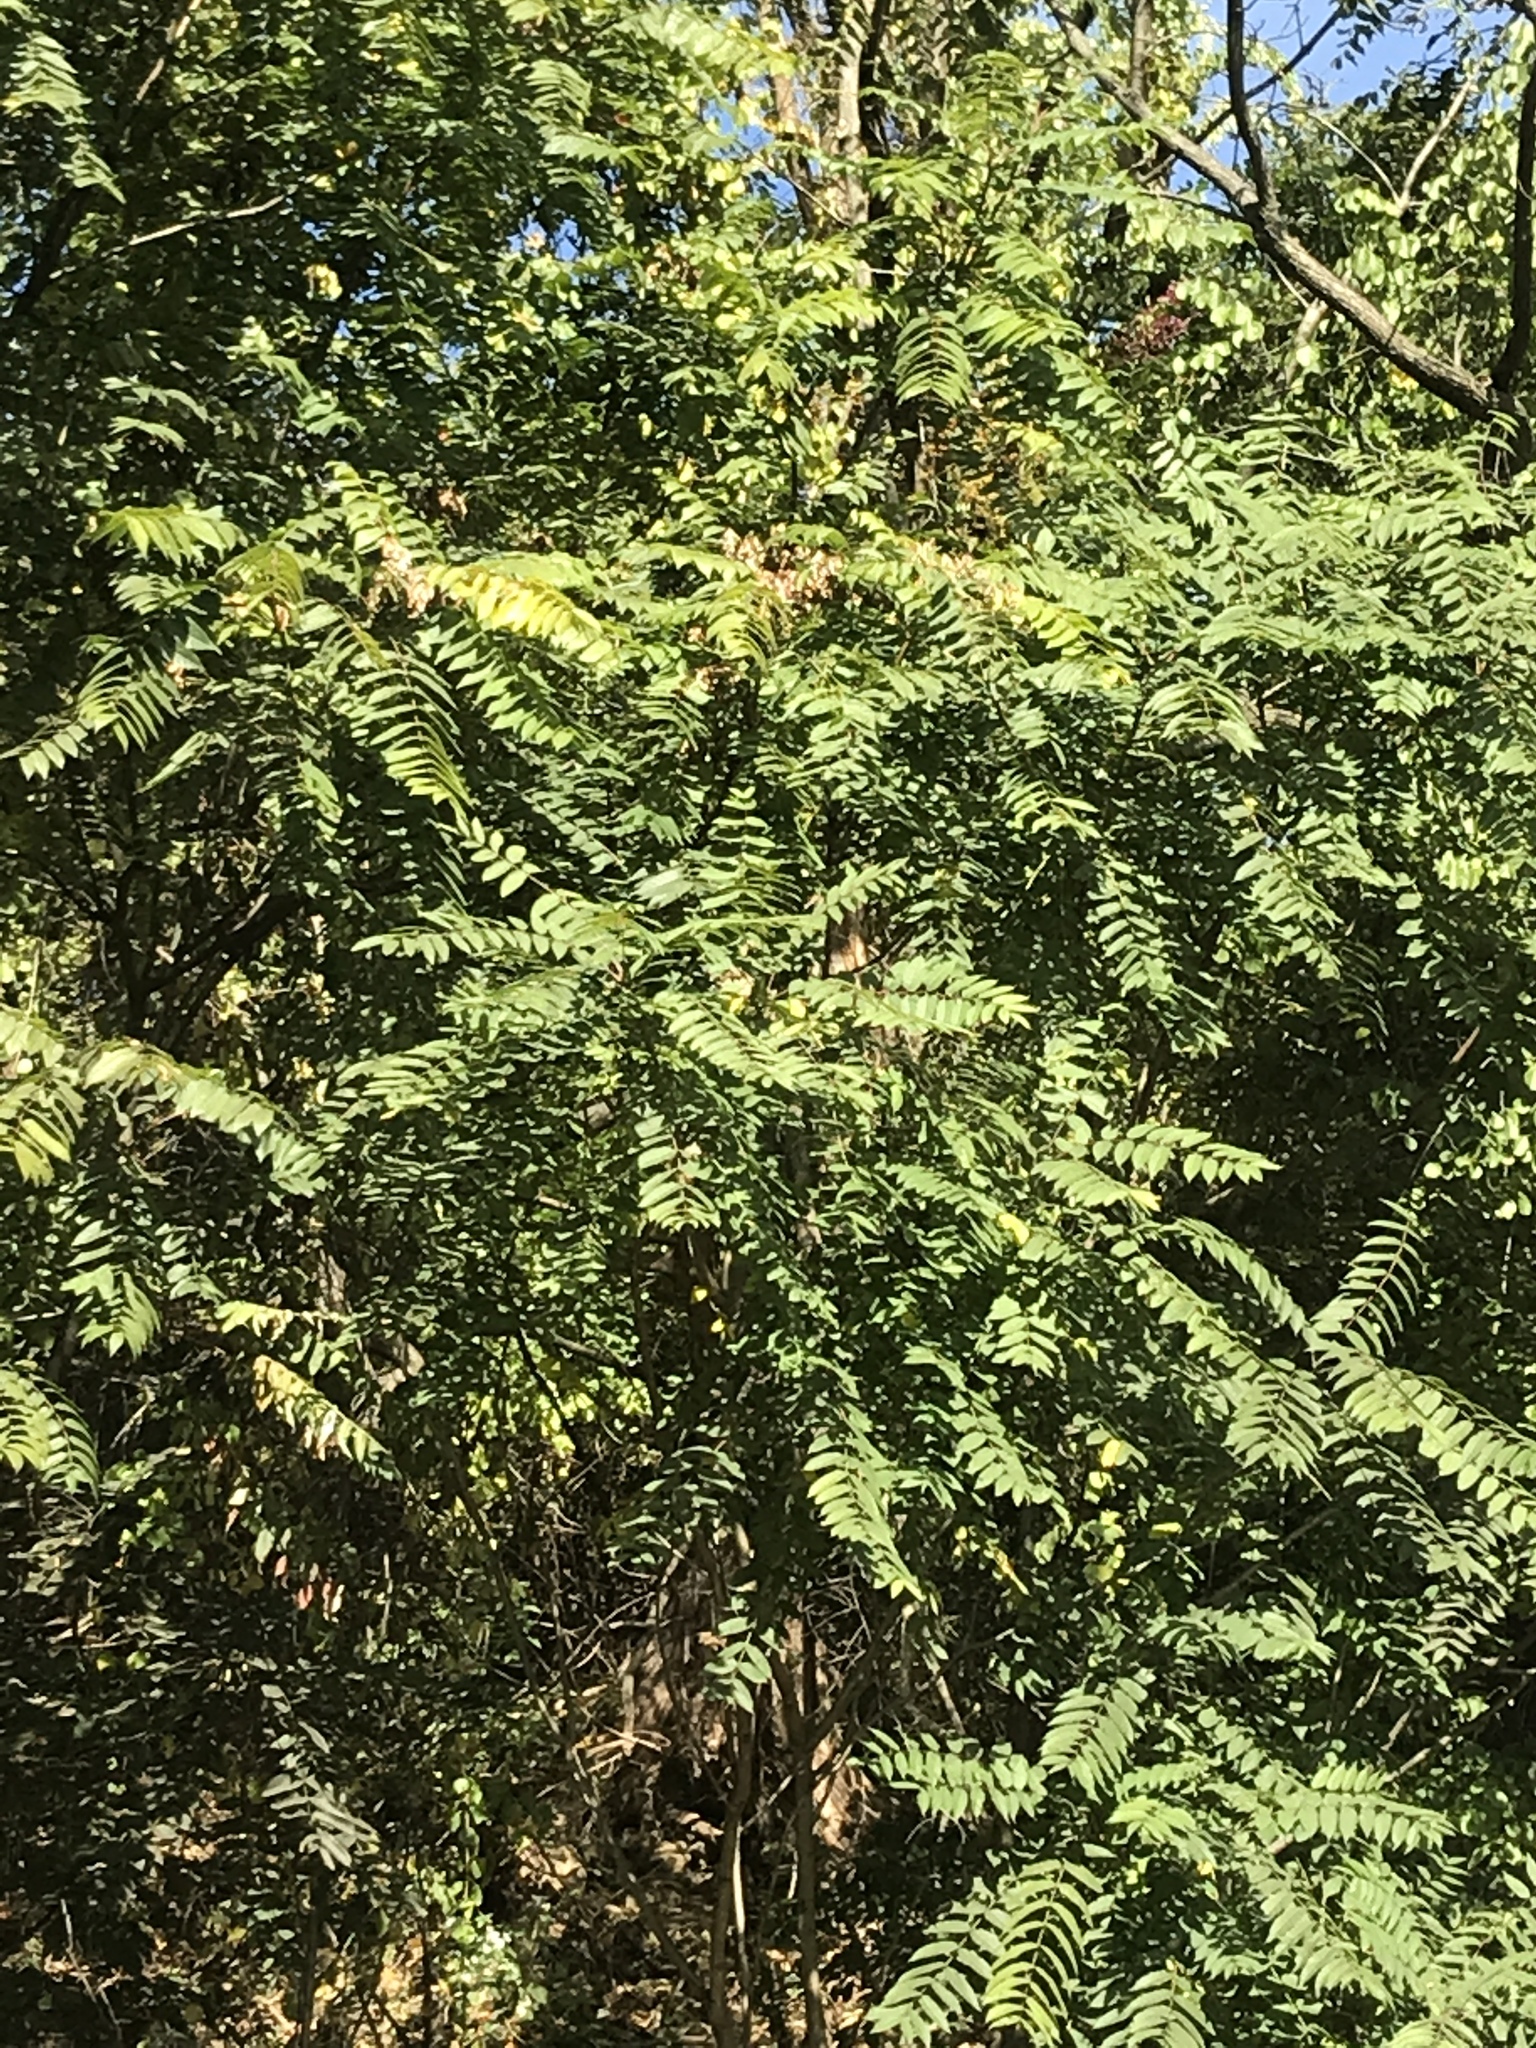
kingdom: Plantae
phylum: Tracheophyta
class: Magnoliopsida
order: Sapindales
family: Simaroubaceae
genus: Ailanthus
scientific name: Ailanthus altissima
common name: Tree-of-heaven
